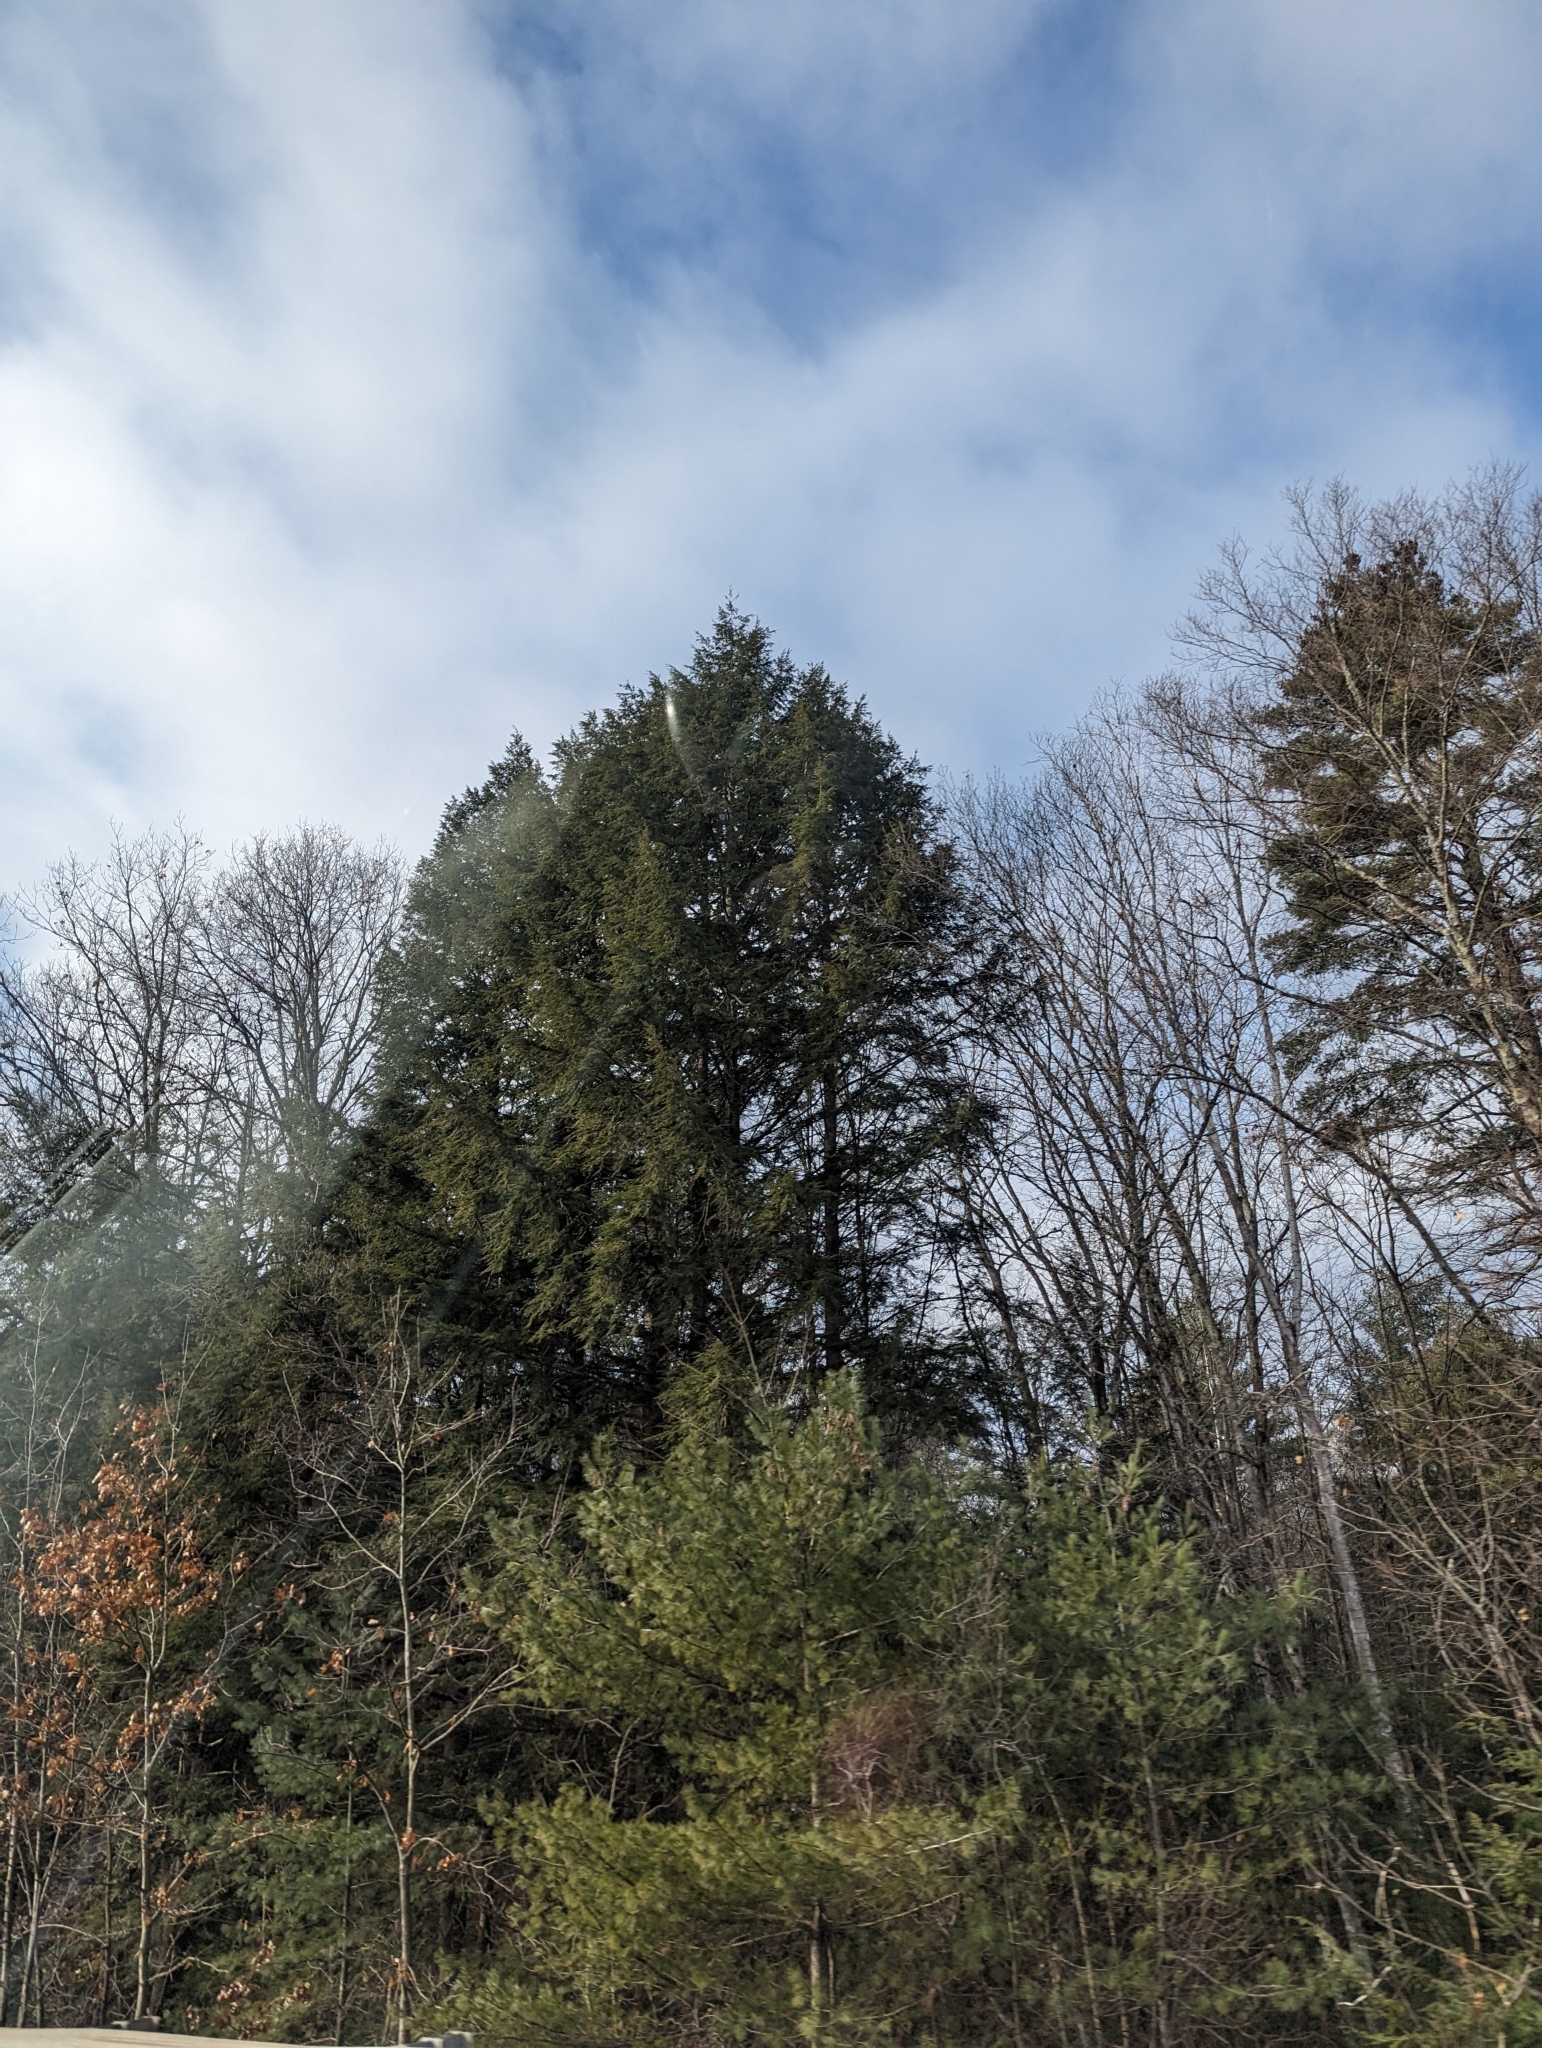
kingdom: Plantae
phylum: Tracheophyta
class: Pinopsida
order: Pinales
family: Pinaceae
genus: Tsuga
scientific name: Tsuga canadensis
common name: Eastern hemlock
